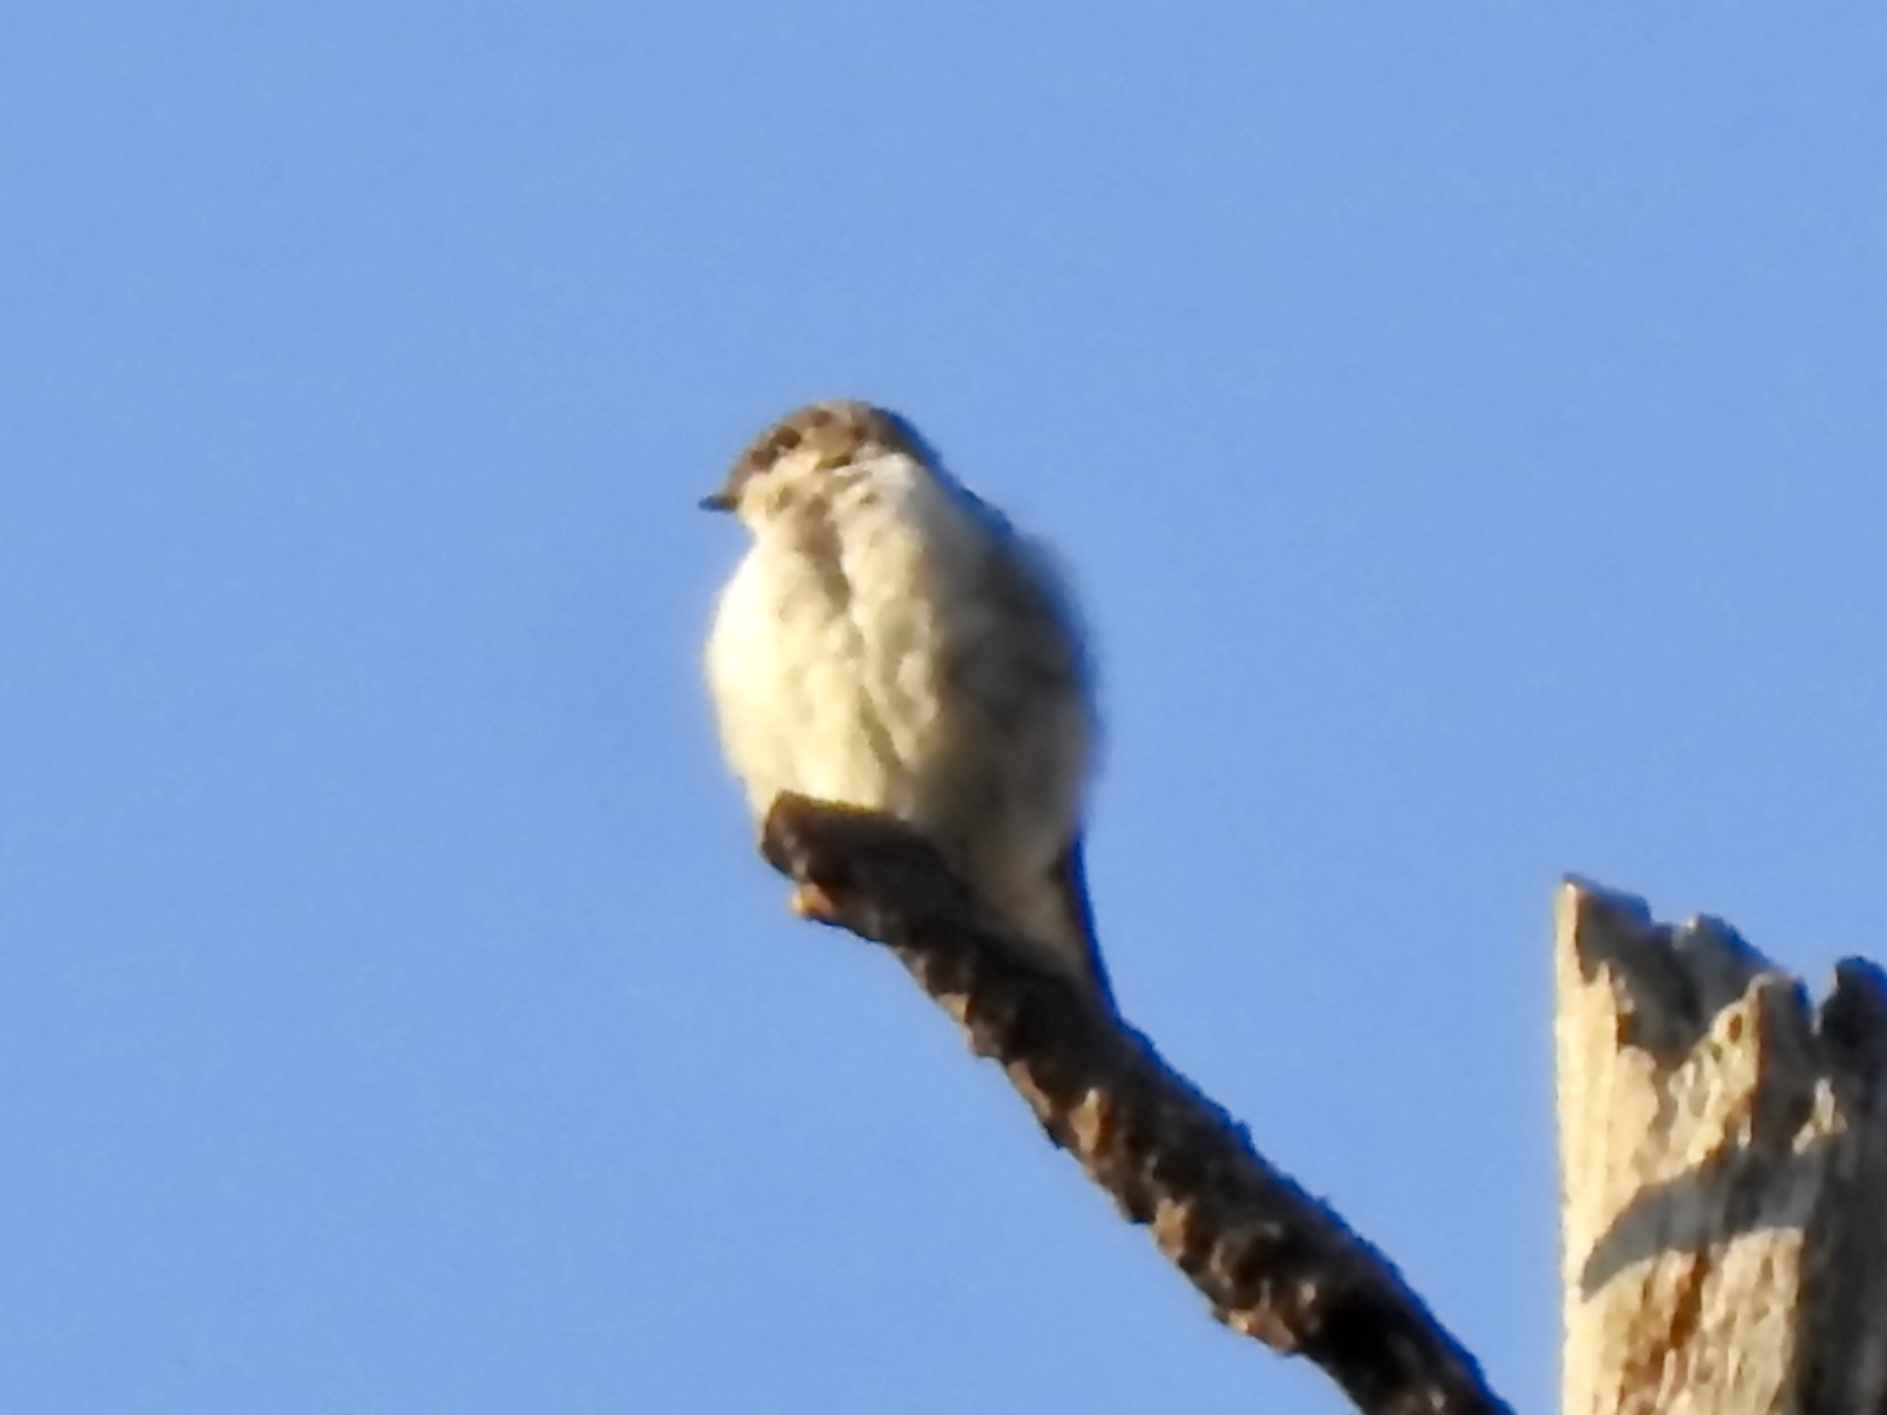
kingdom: Animalia
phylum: Chordata
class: Aves
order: Passeriformes
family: Hirundinidae
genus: Tachycineta
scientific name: Tachycineta thalassina
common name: Violet-green swallow
